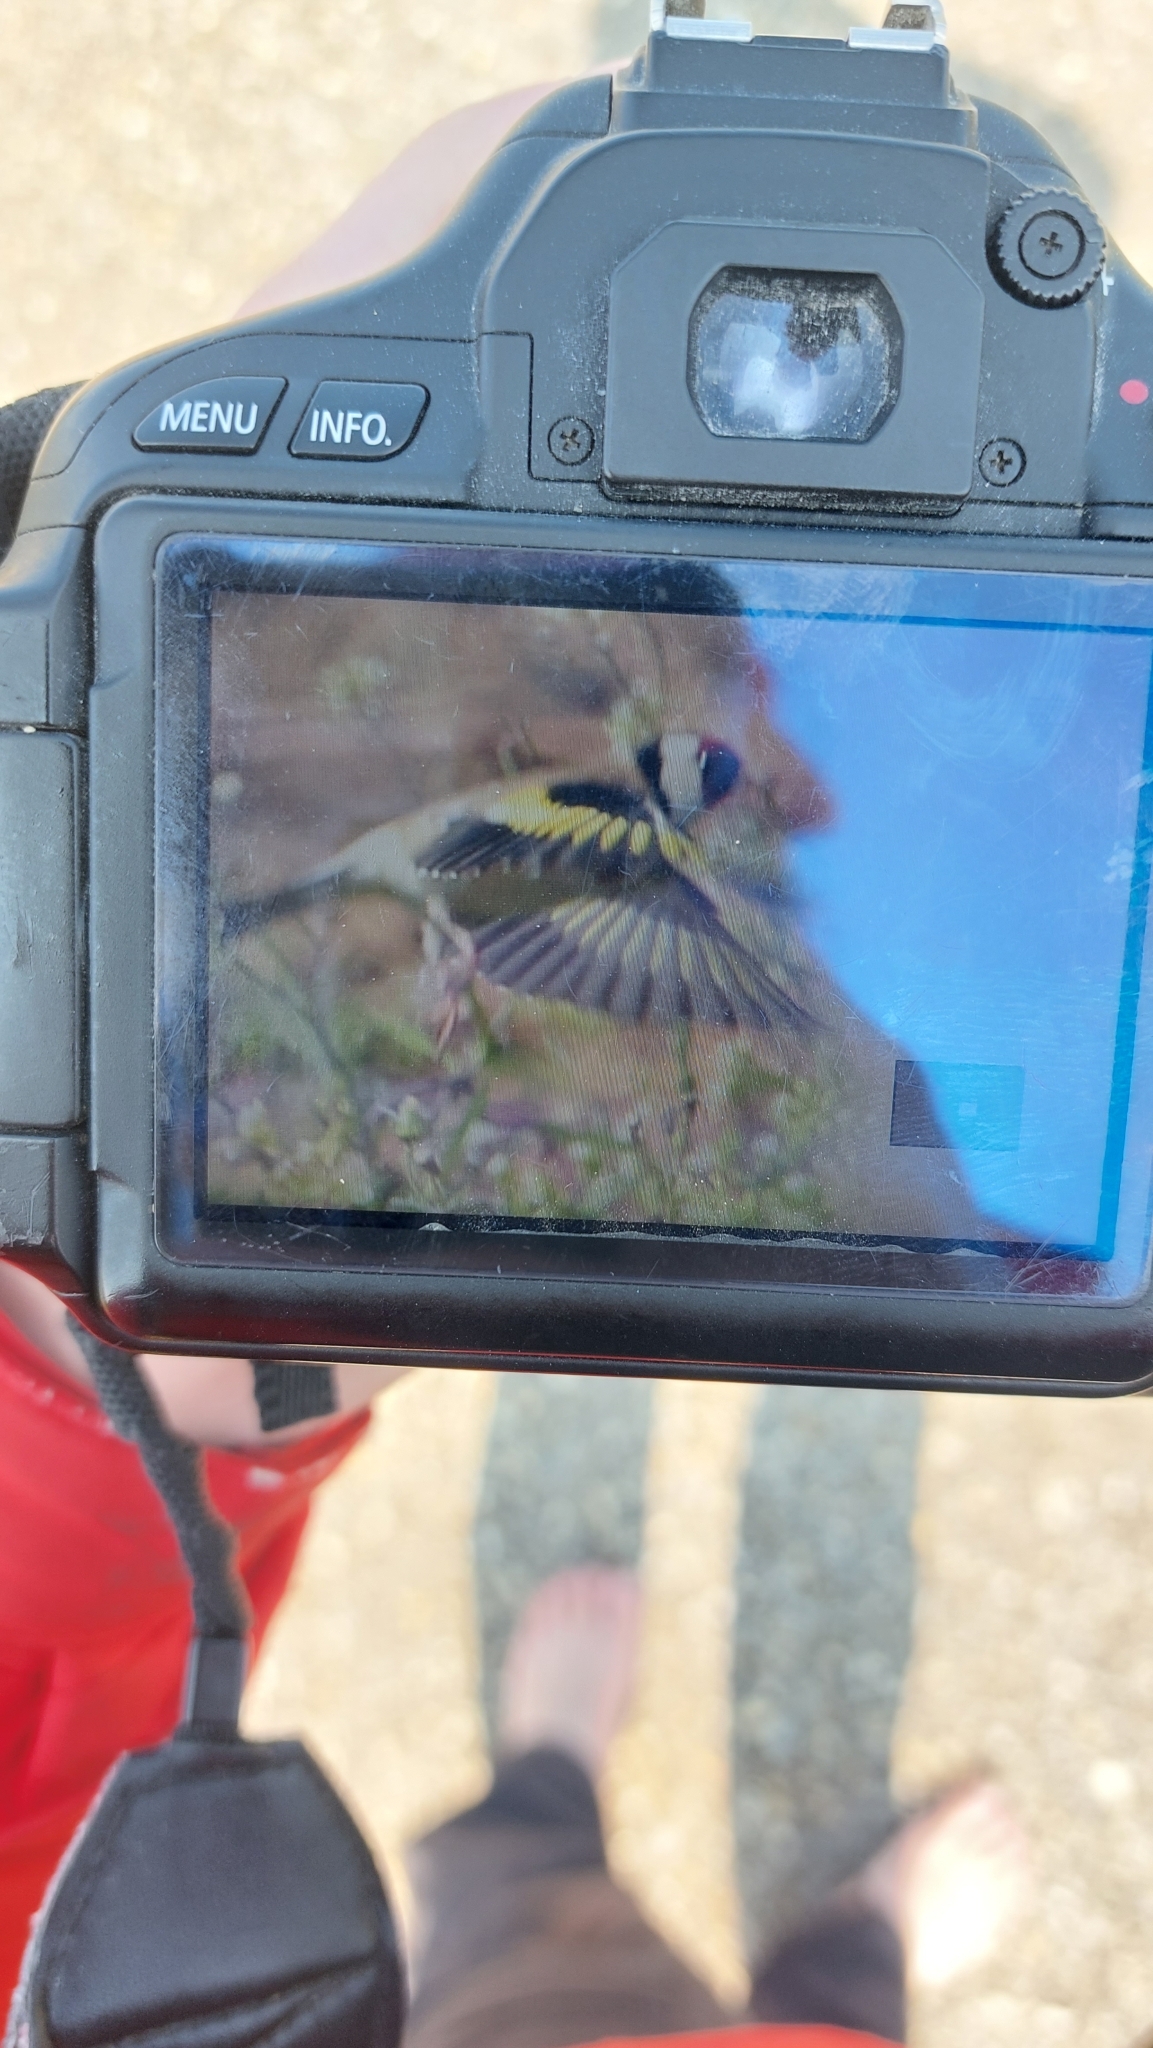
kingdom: Animalia
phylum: Chordata
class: Aves
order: Passeriformes
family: Fringillidae
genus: Carduelis
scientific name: Carduelis carduelis
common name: European goldfinch
